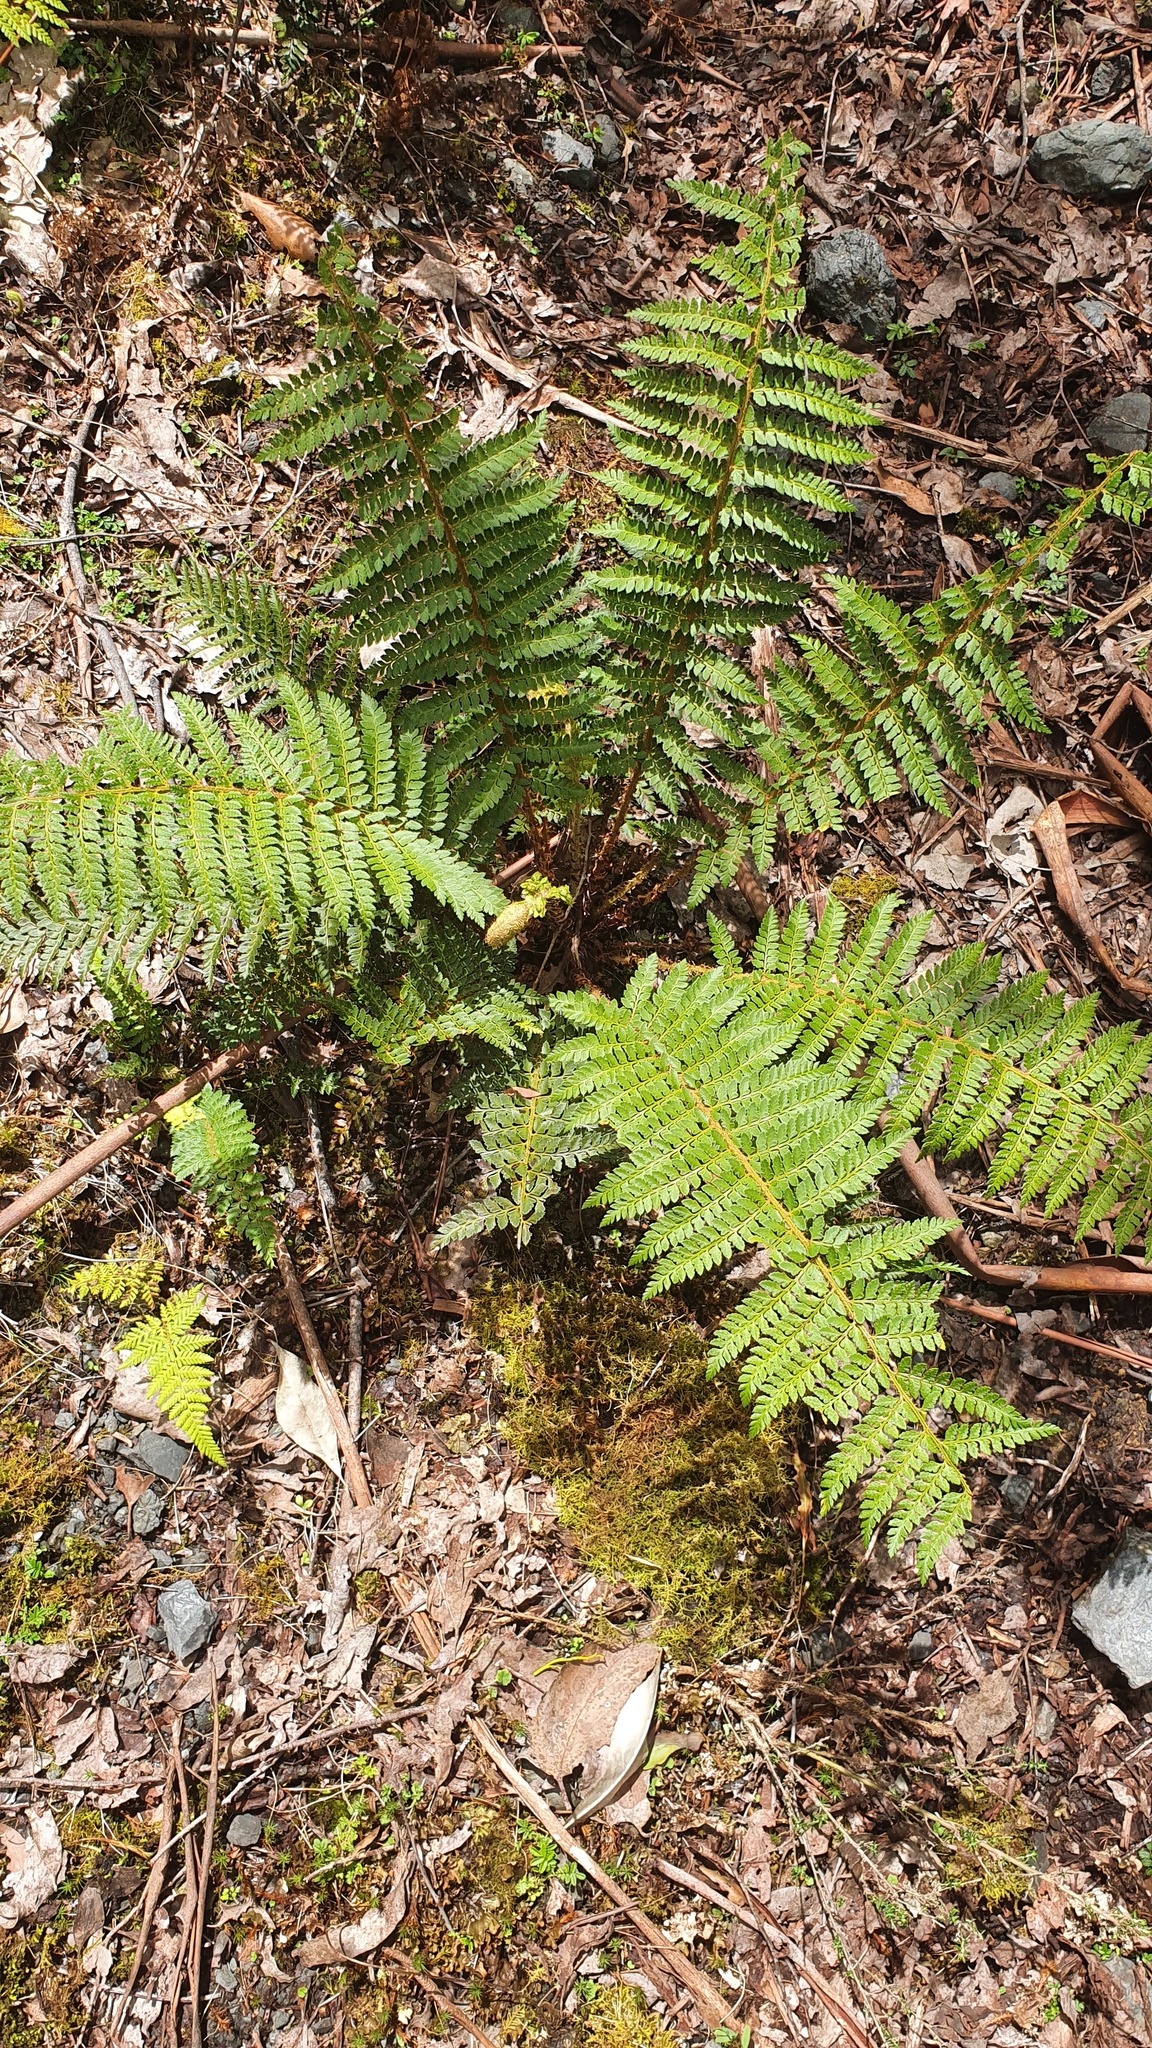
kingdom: Plantae
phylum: Tracheophyta
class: Polypodiopsida
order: Polypodiales
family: Dryopteridaceae
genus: Polystichum
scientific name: Polystichum proliferum
